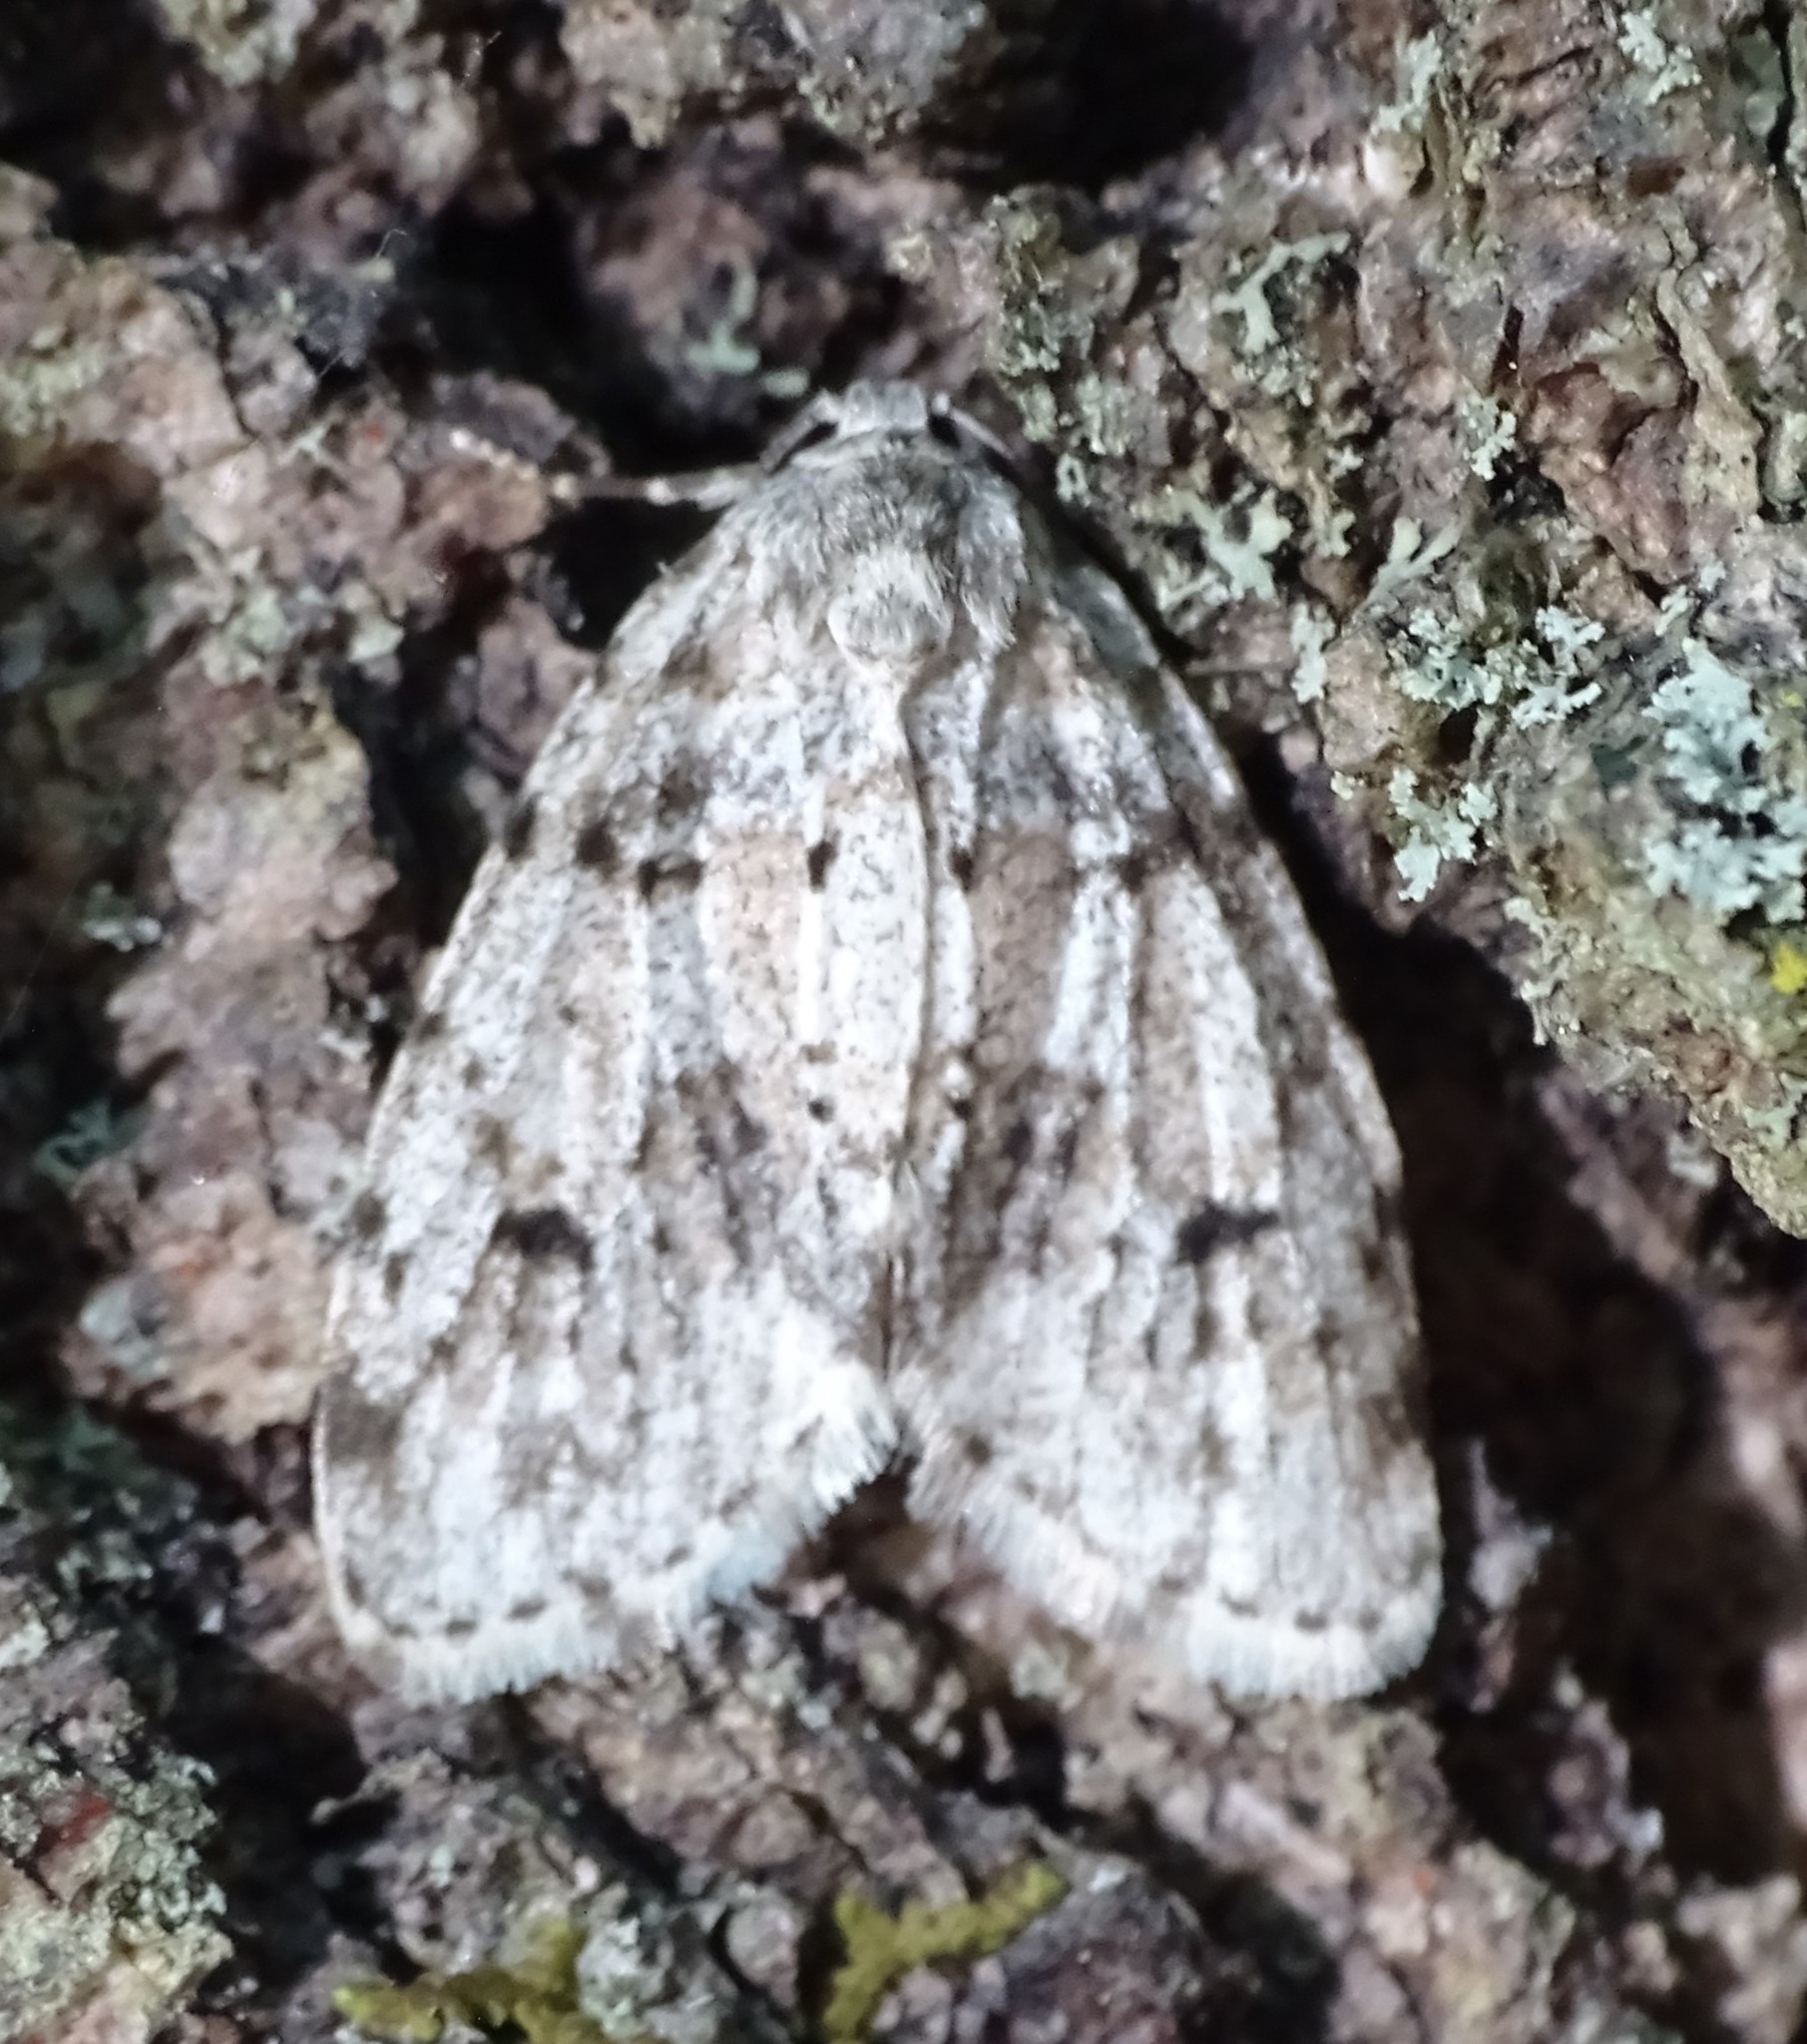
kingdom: Animalia
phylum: Arthropoda
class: Insecta
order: Lepidoptera
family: Erebidae
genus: Clemensia
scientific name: Clemensia albata
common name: Little white lichen moth
